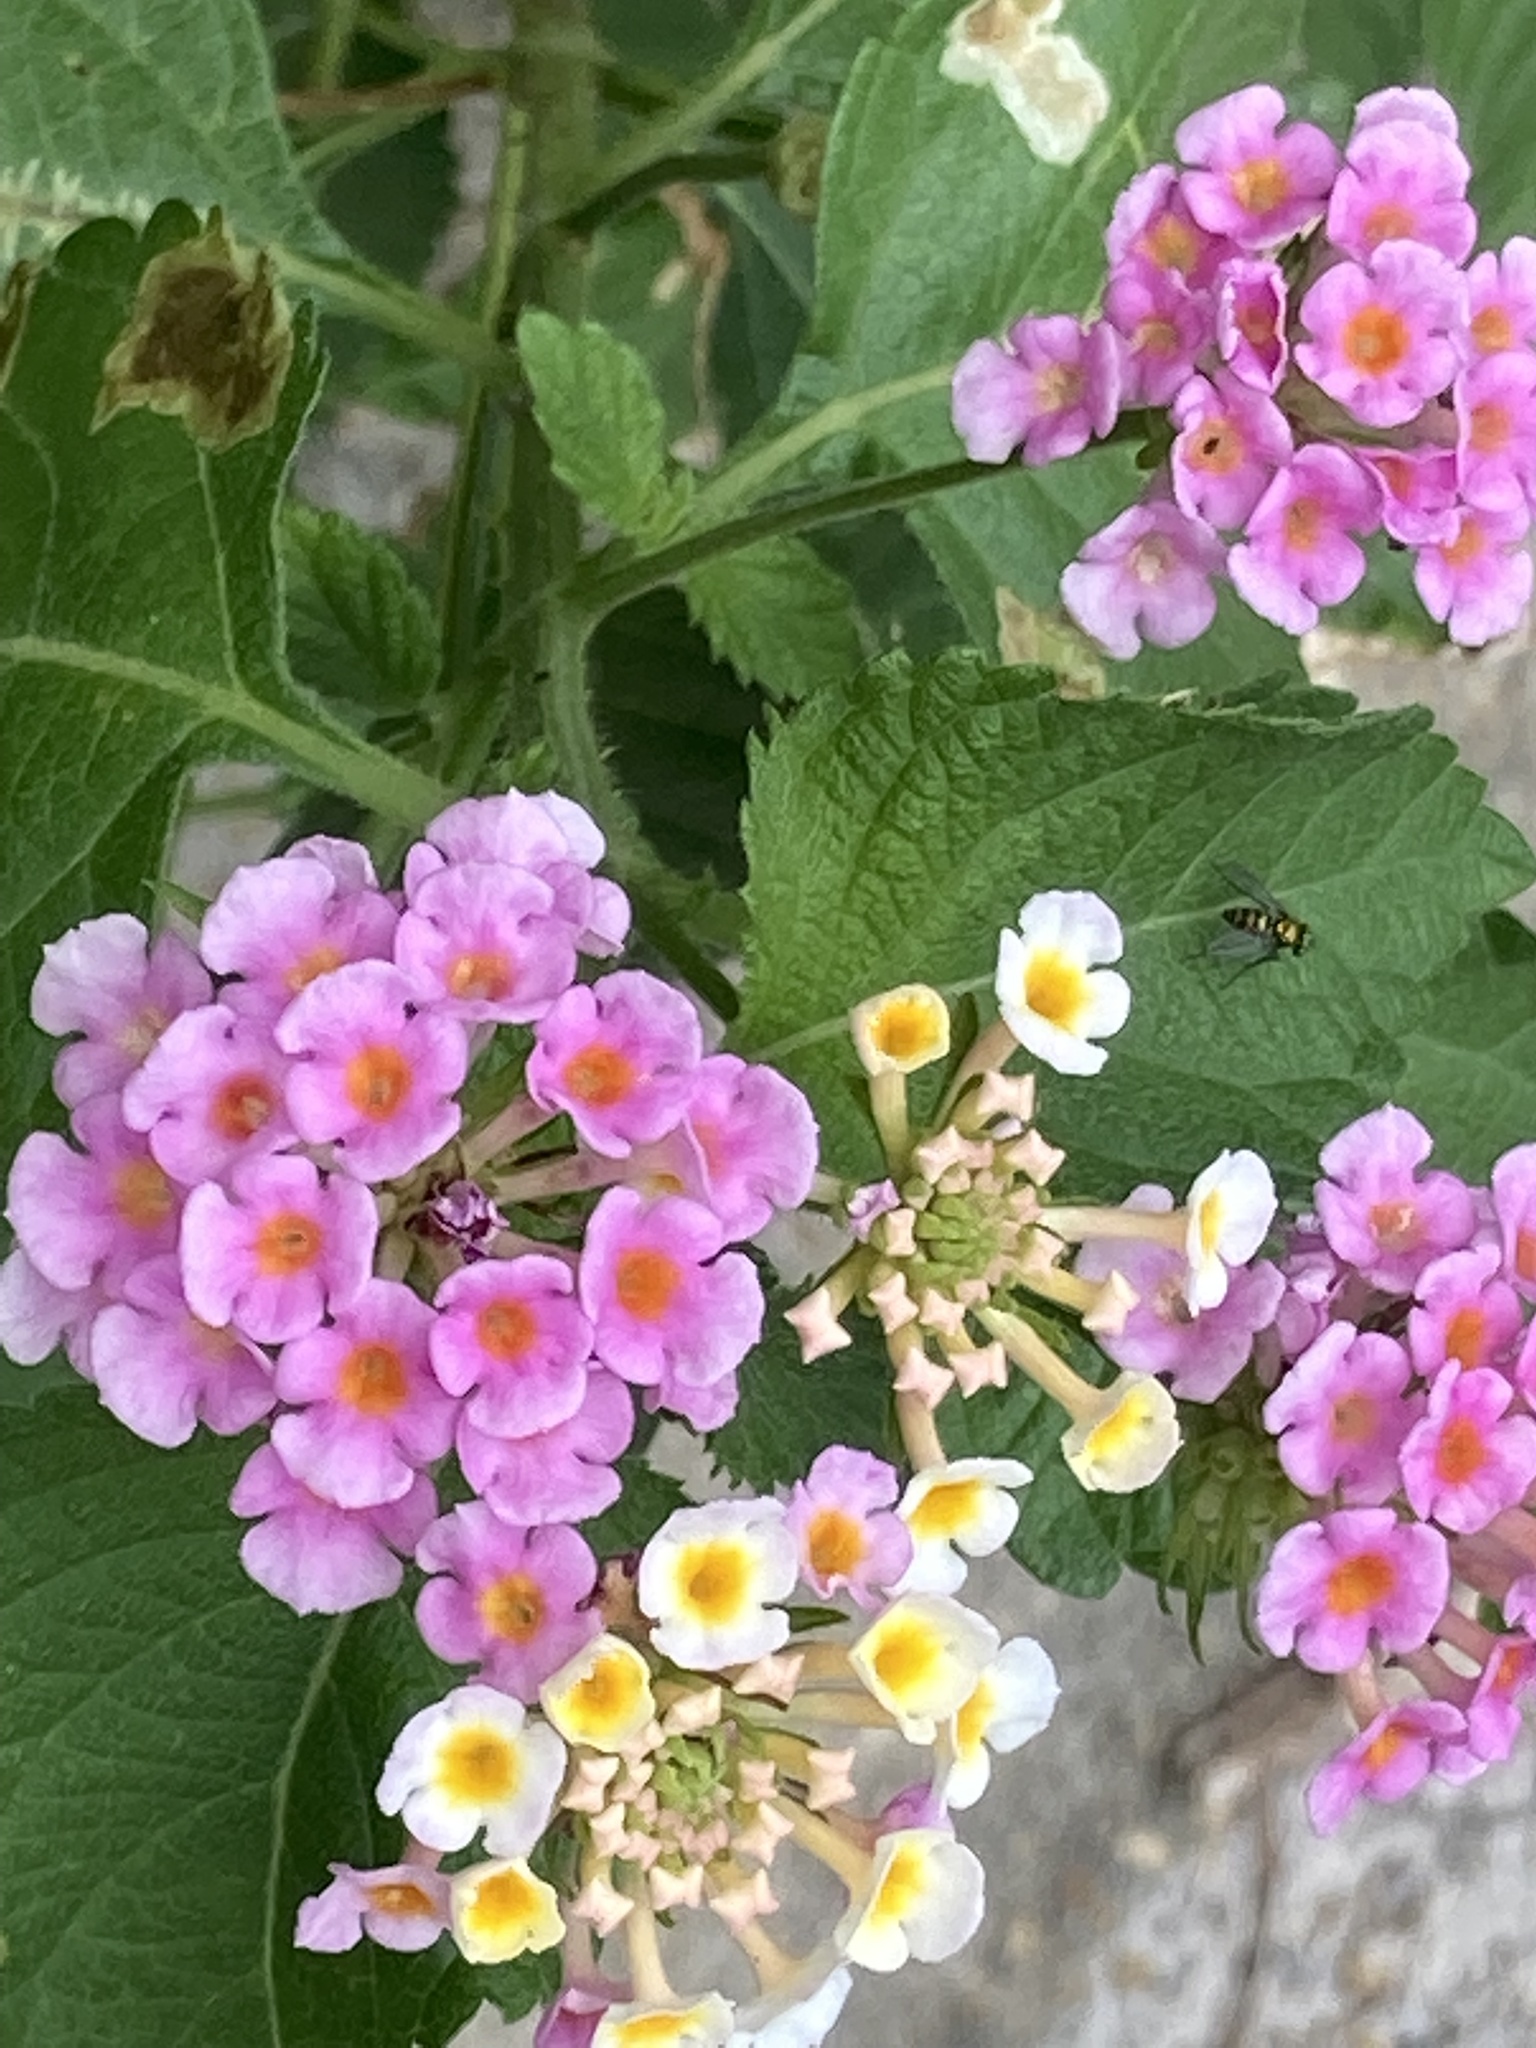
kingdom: Plantae
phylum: Tracheophyta
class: Magnoliopsida
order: Lamiales
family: Verbenaceae
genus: Lantana
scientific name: Lantana strigocamara
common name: Lantana
